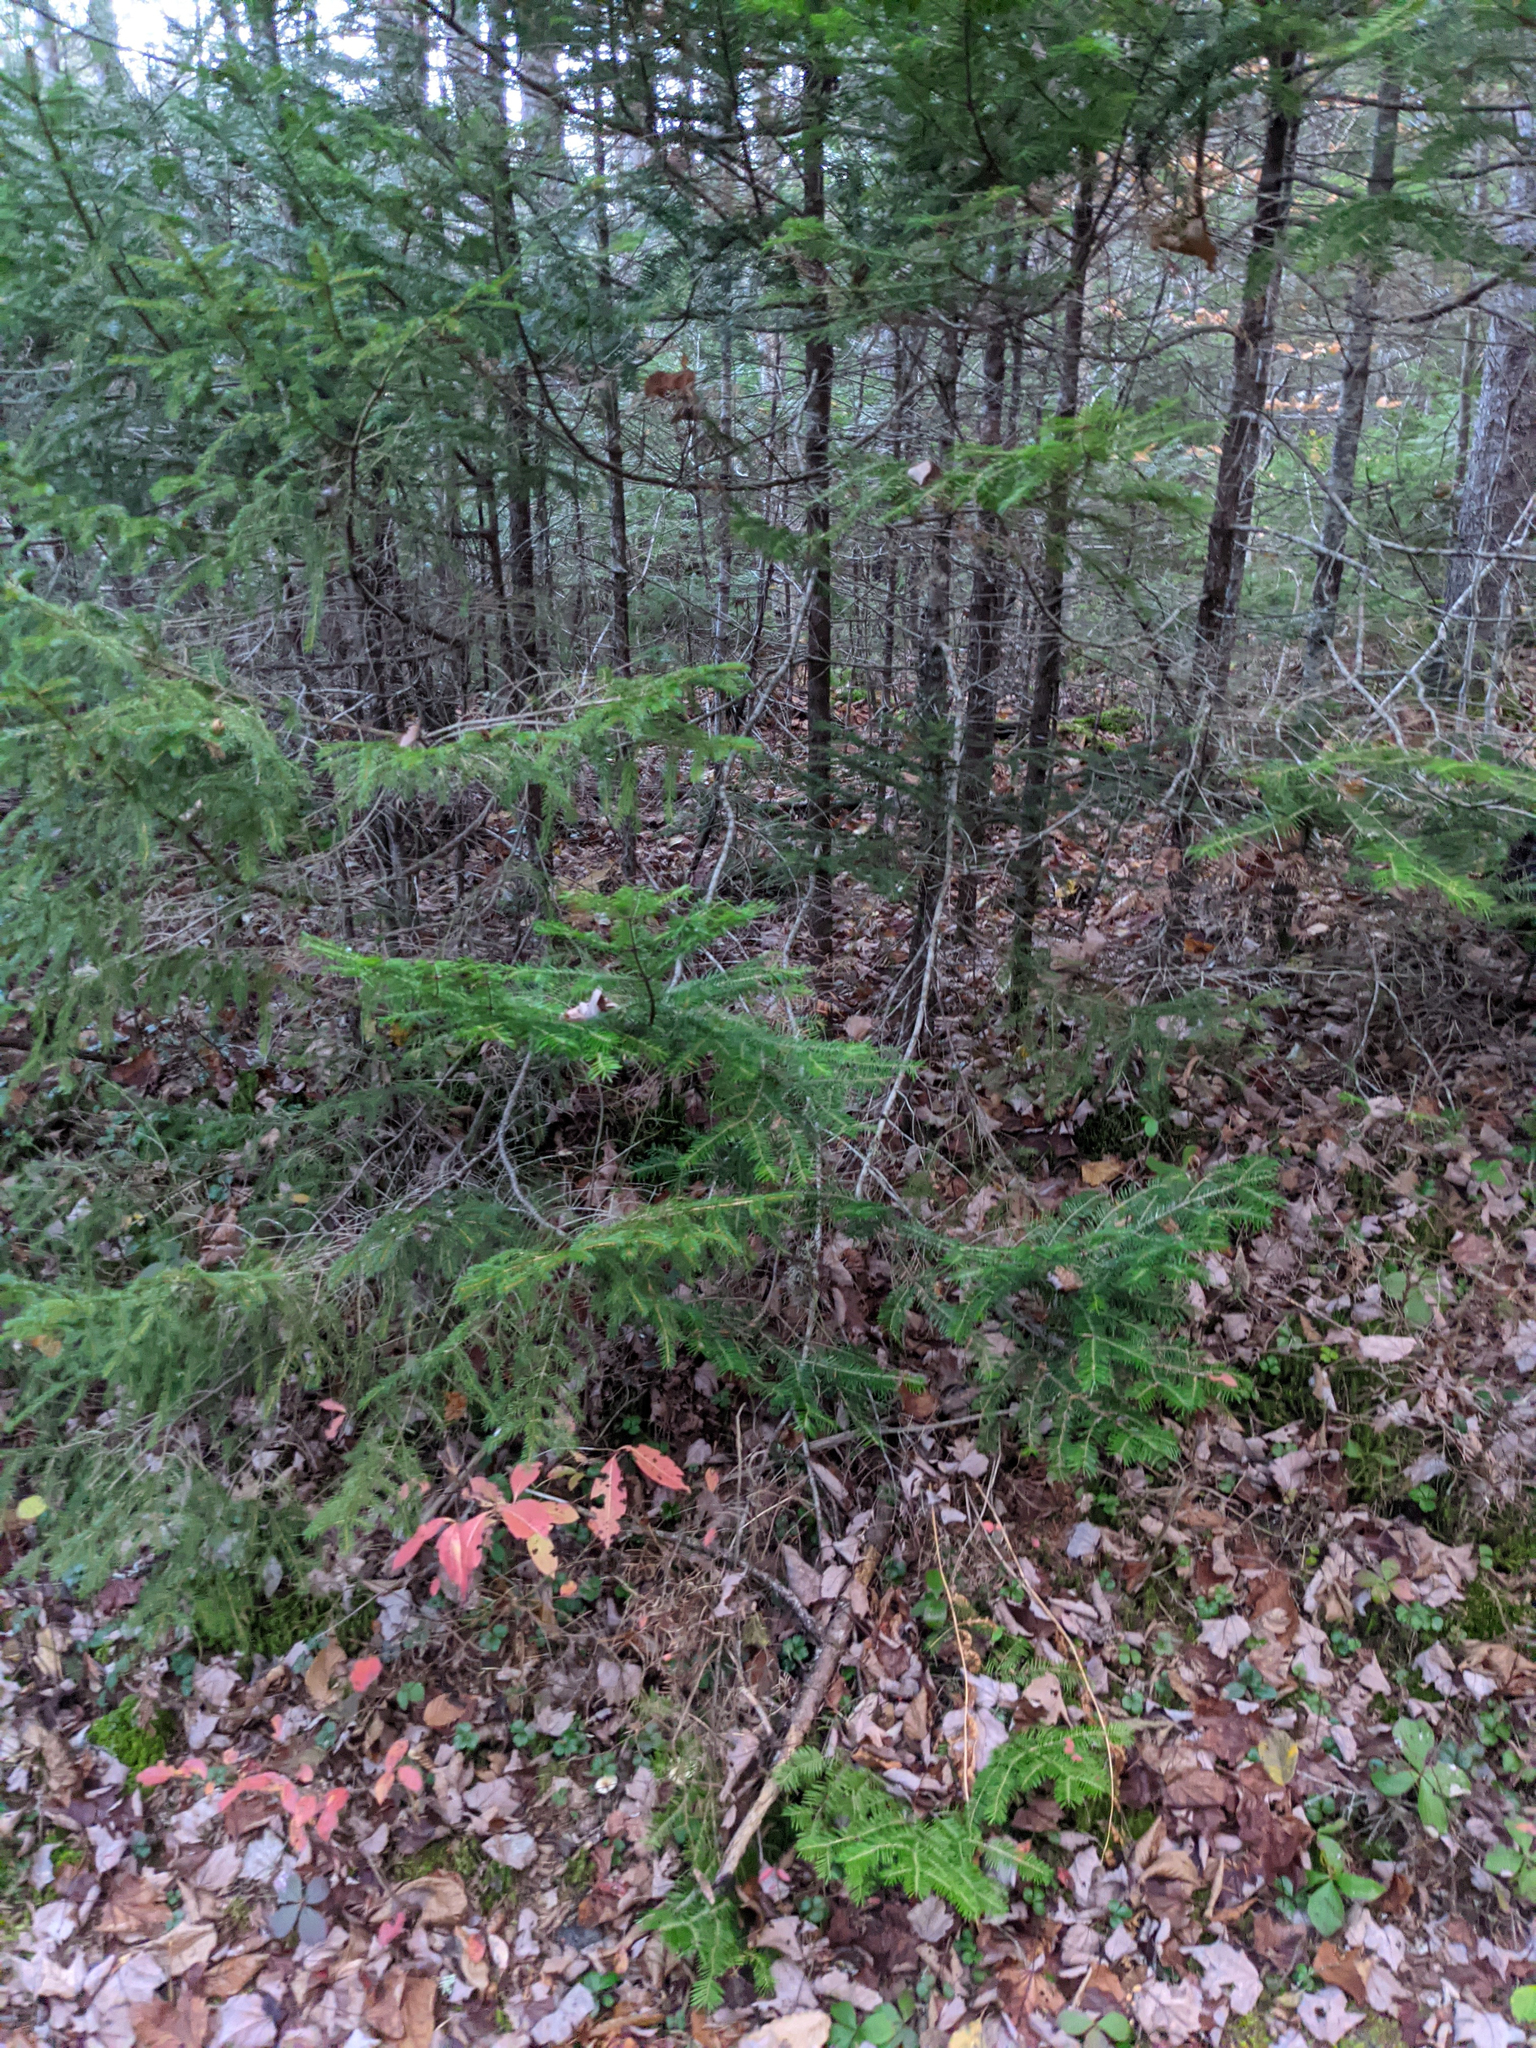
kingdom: Plantae
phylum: Tracheophyta
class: Pinopsida
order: Pinales
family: Pinaceae
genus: Abies
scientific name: Abies balsamea
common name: Balsam fir
